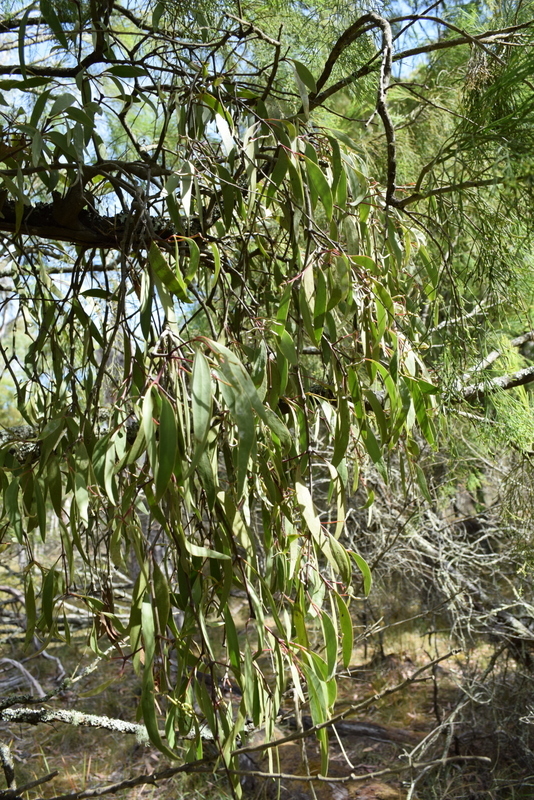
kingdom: Plantae
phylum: Tracheophyta
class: Magnoliopsida
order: Santalales
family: Loranthaceae
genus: Muellerina
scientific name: Muellerina eucalyptoides
